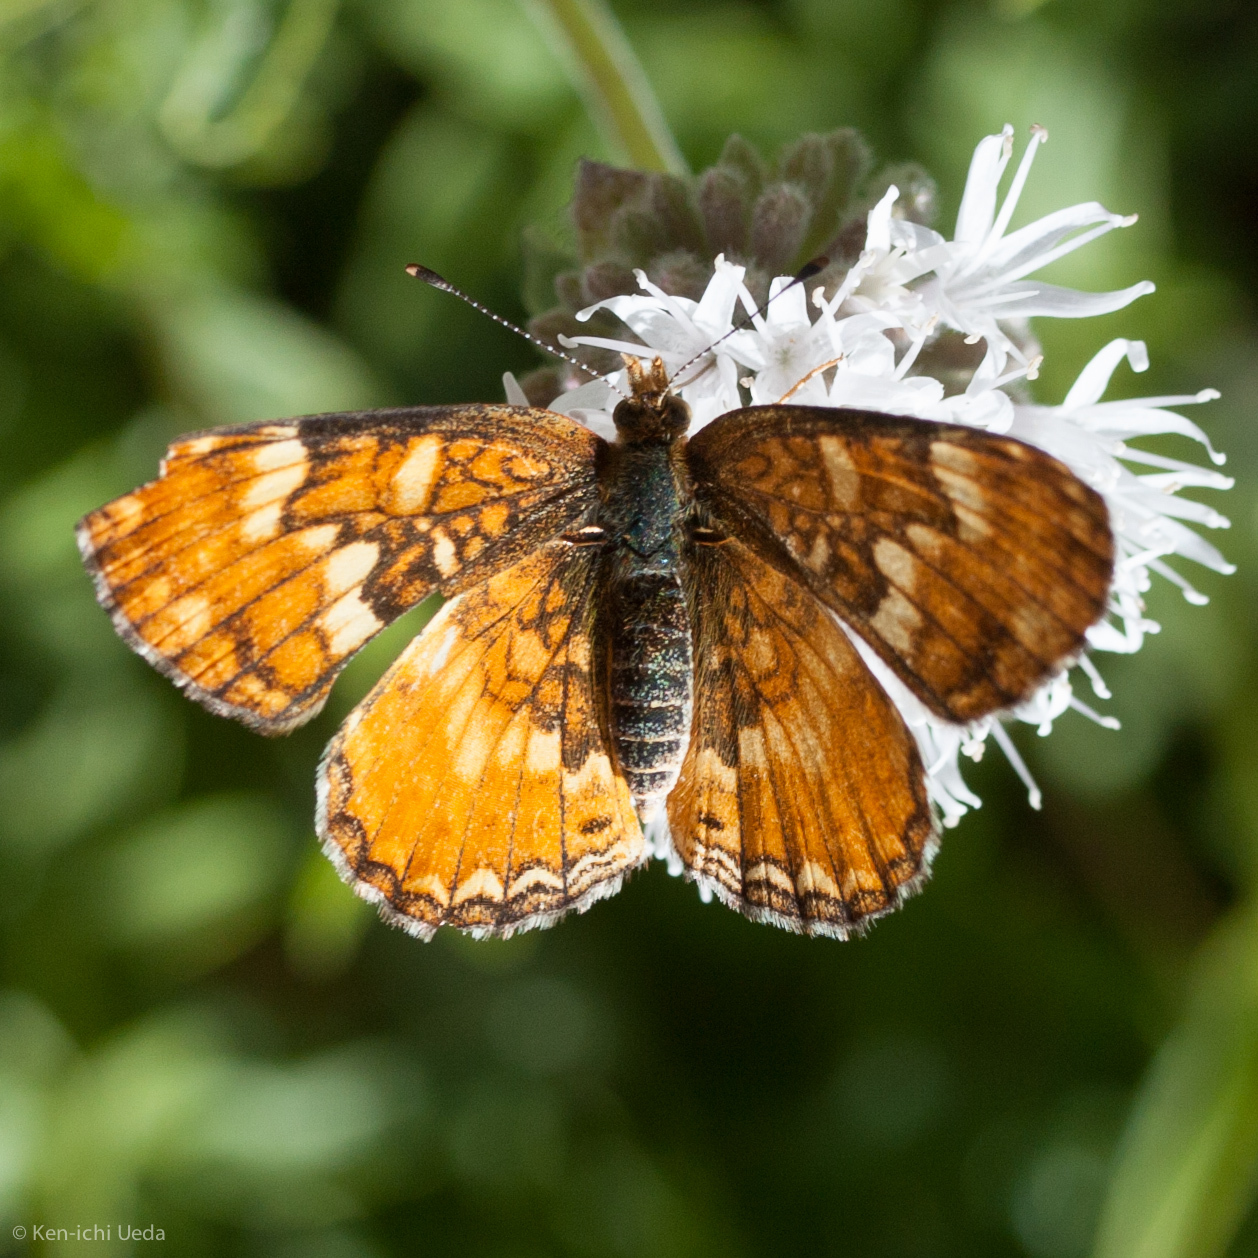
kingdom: Animalia
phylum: Arthropoda
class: Insecta
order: Lepidoptera
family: Nymphalidae
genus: Phyciodes
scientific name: Phyciodes orseis
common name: California crescent
